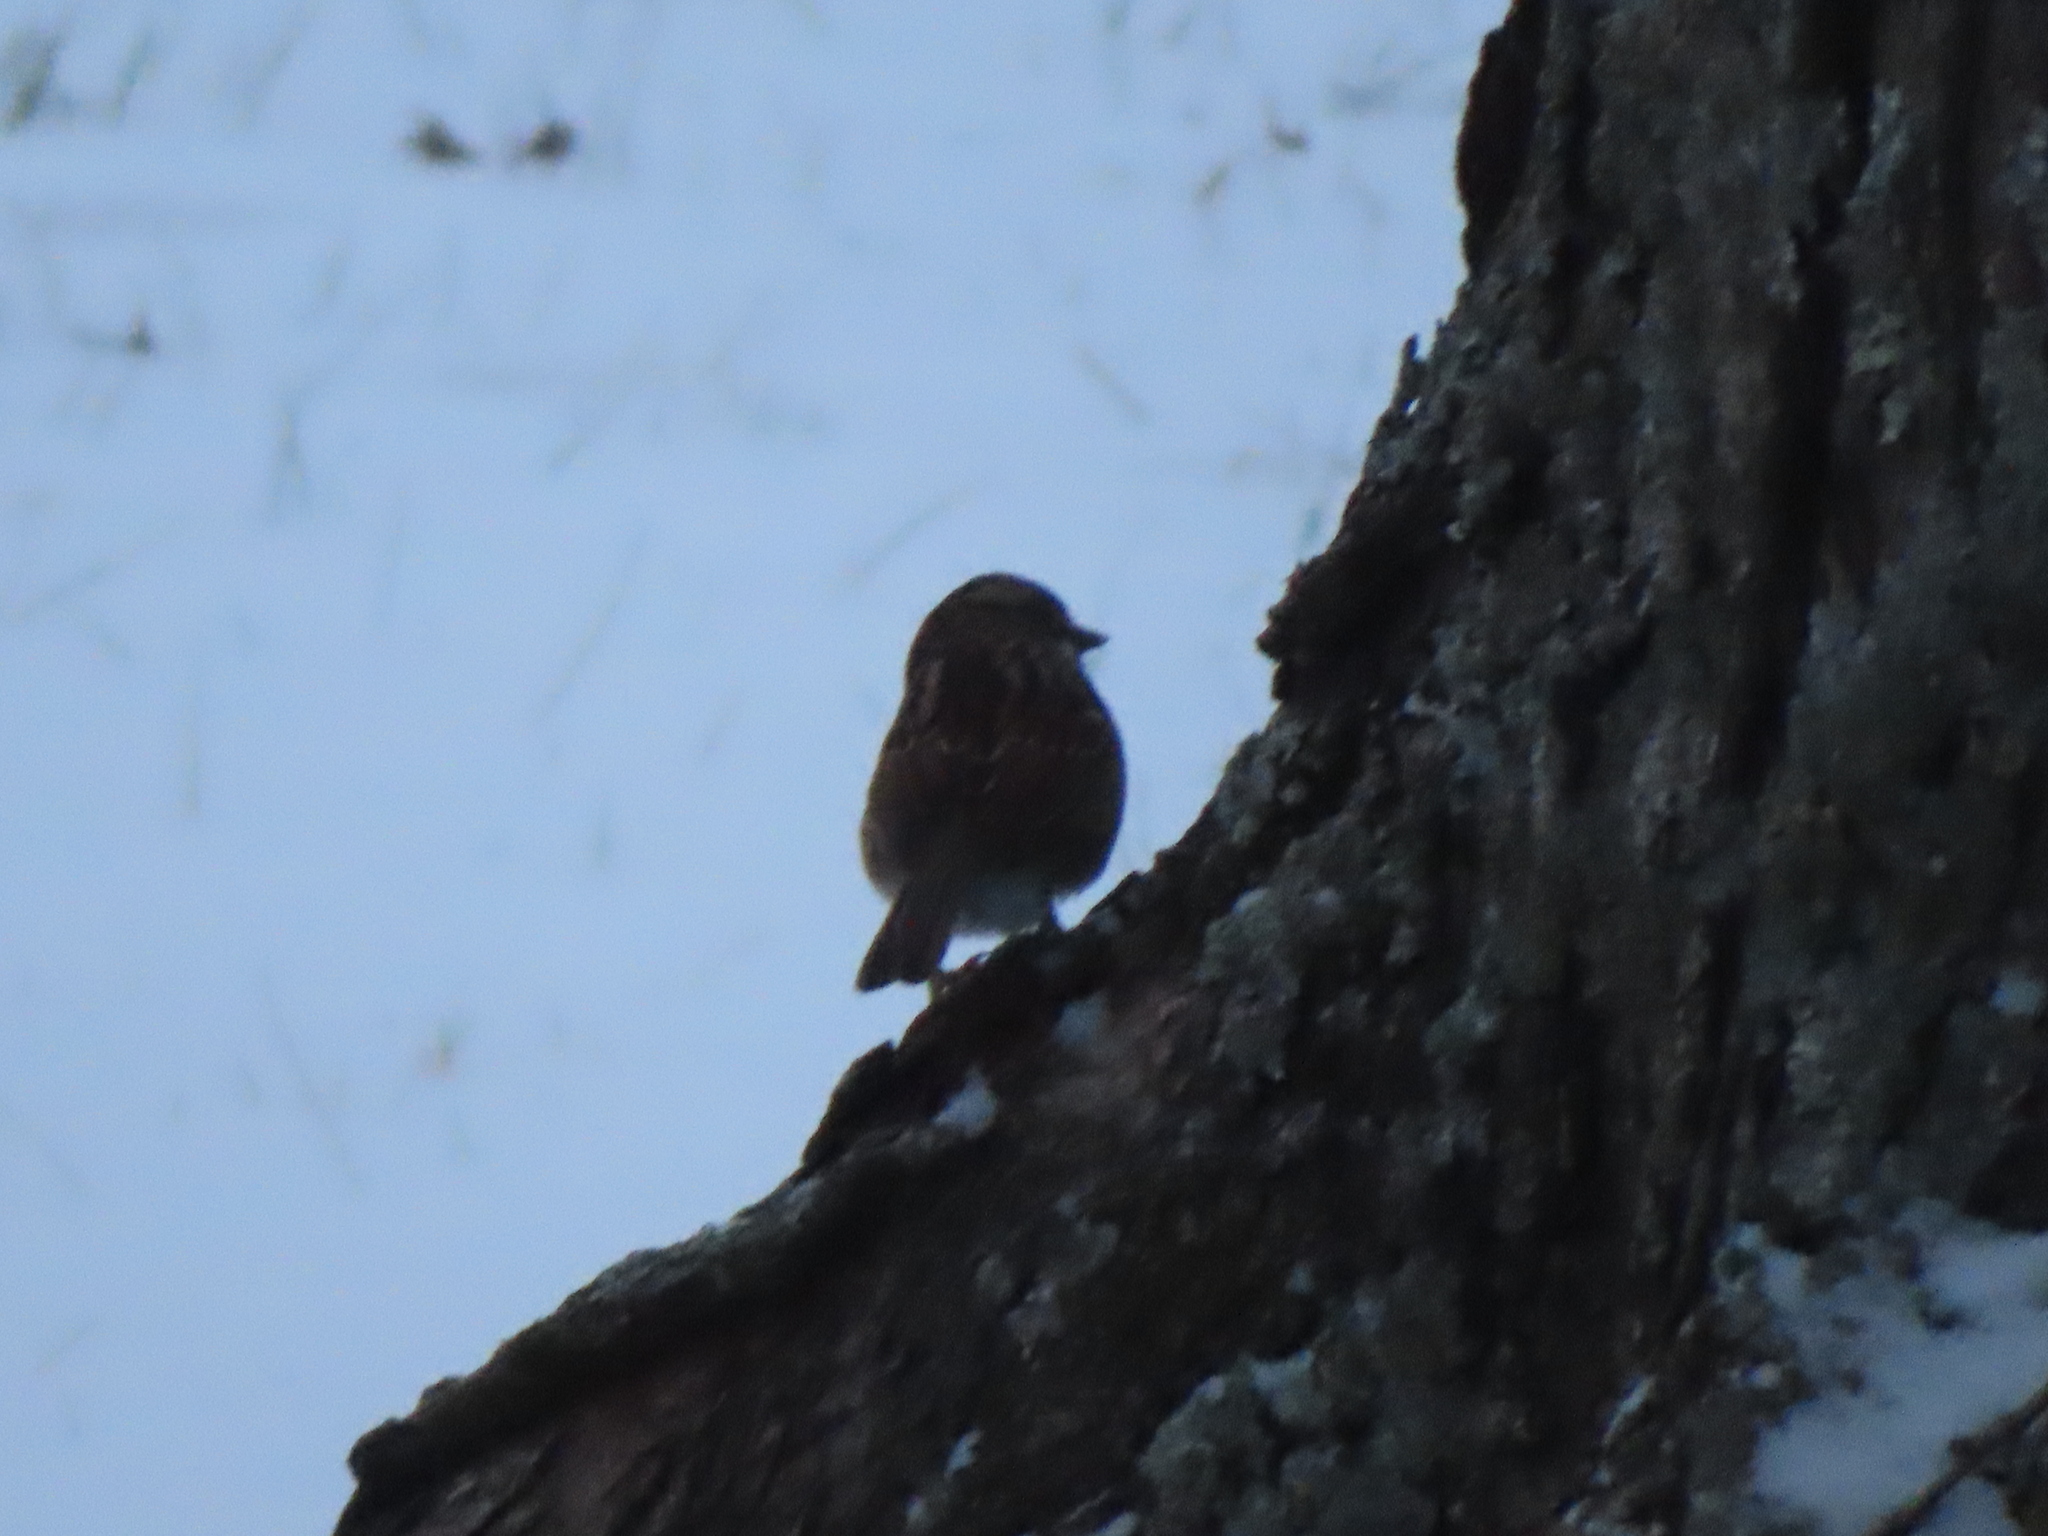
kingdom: Animalia
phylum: Chordata
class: Aves
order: Passeriformes
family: Passerellidae
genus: Zonotrichia
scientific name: Zonotrichia albicollis
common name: White-throated sparrow
